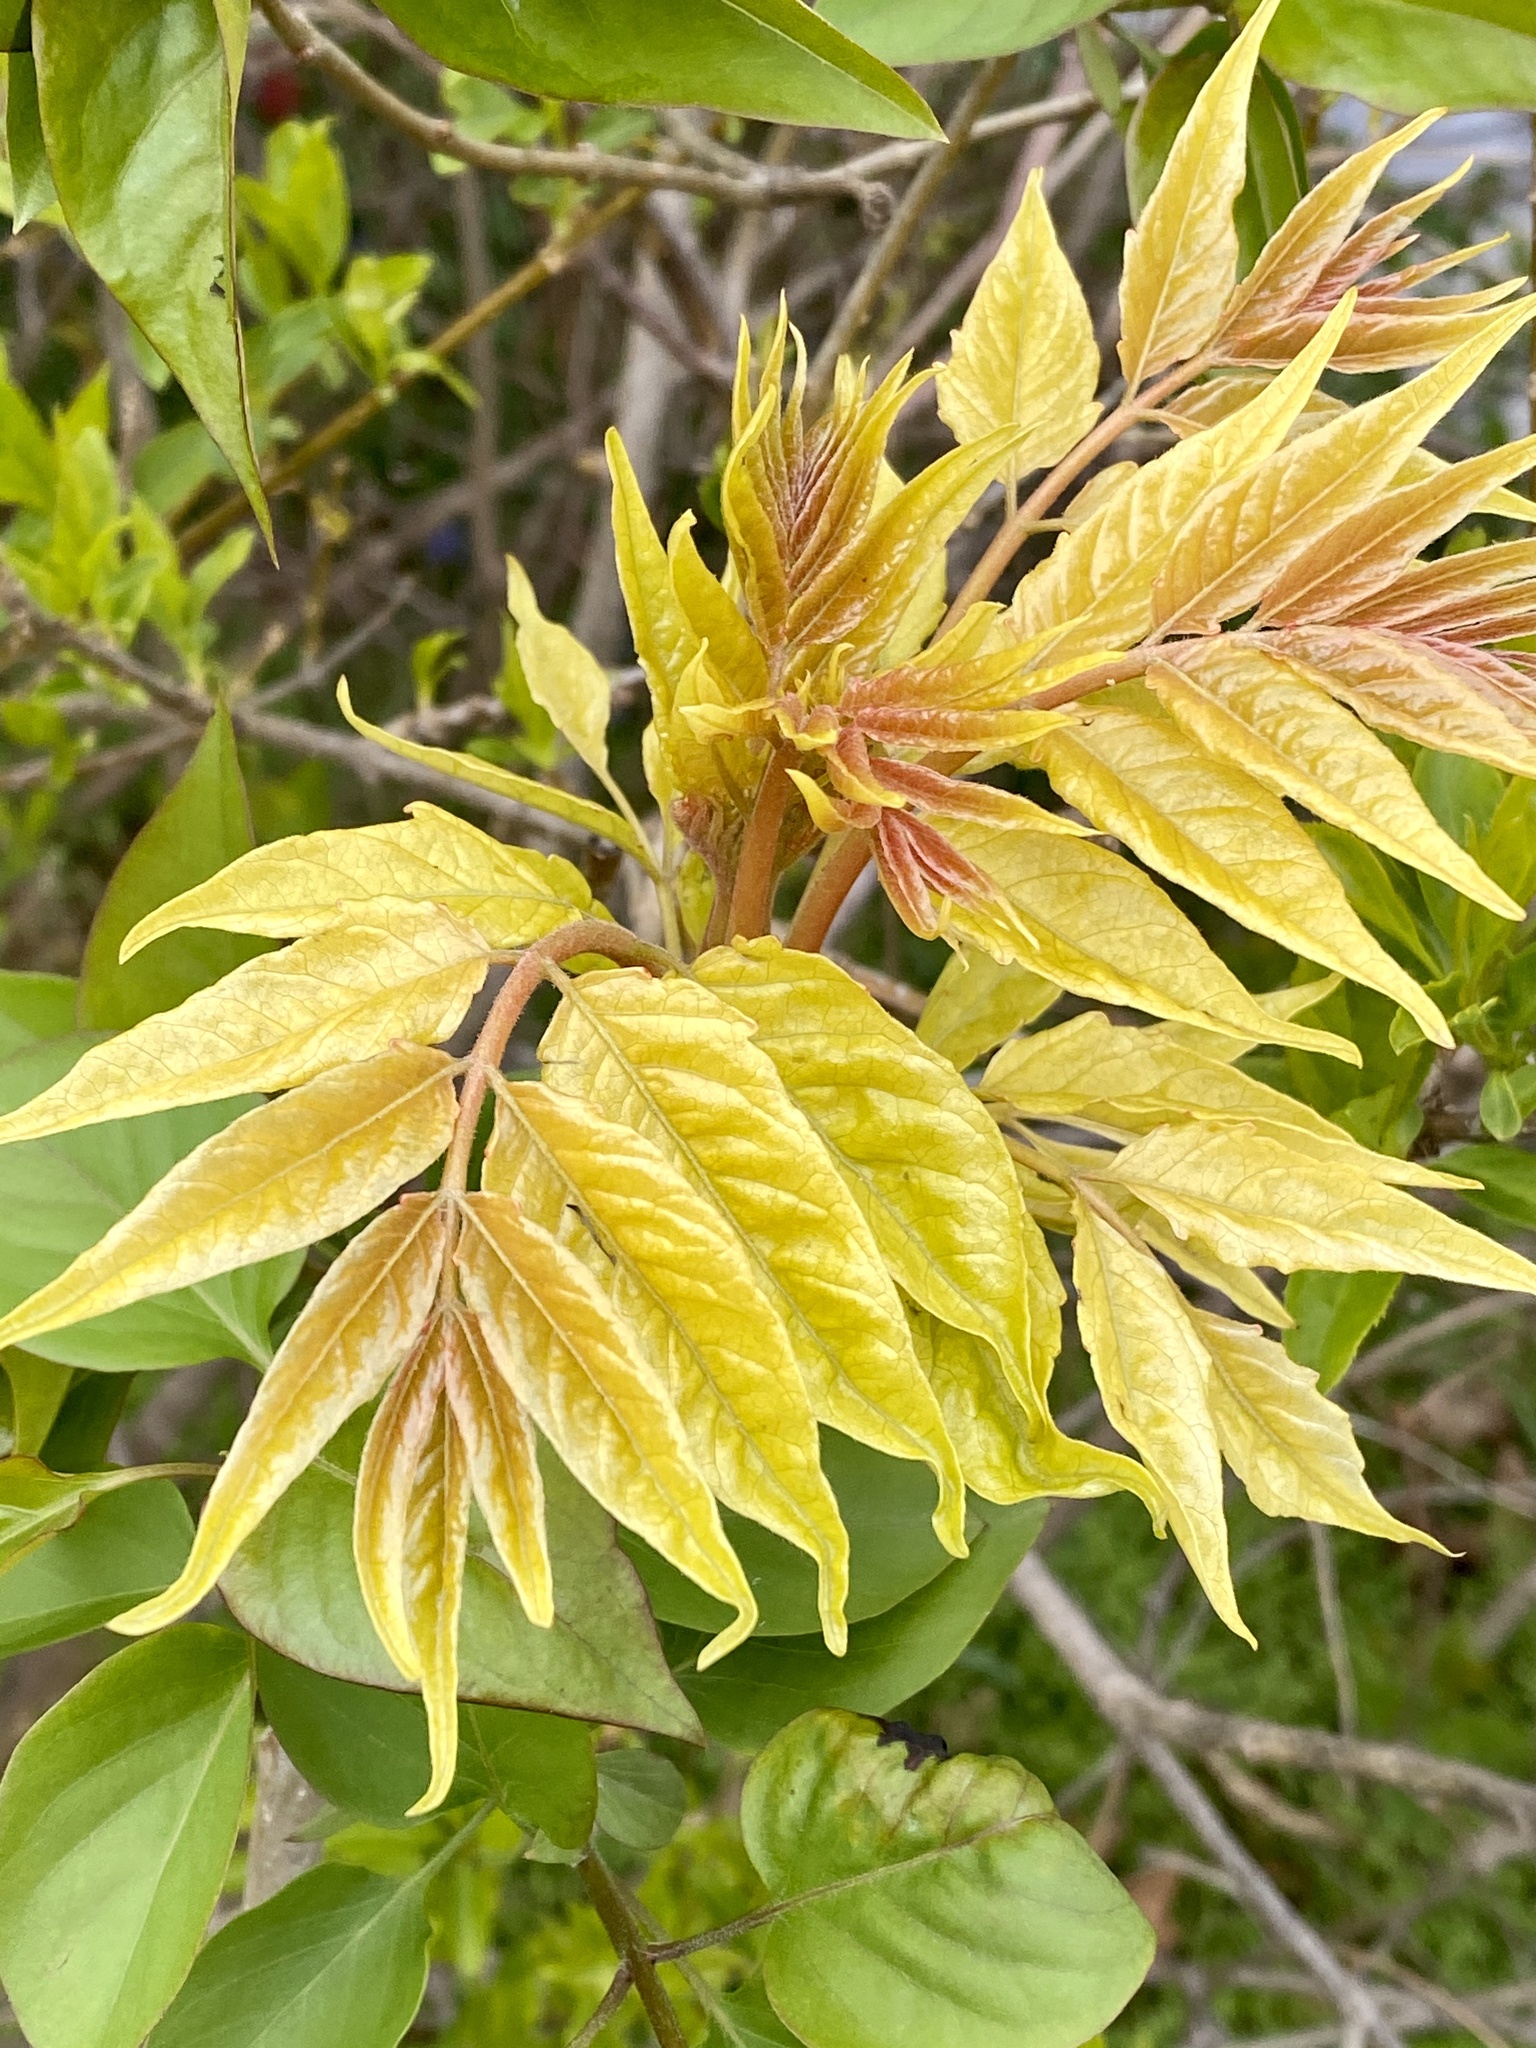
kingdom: Plantae
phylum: Tracheophyta
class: Magnoliopsida
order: Sapindales
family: Simaroubaceae
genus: Ailanthus
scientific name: Ailanthus altissima
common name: Tree-of-heaven
